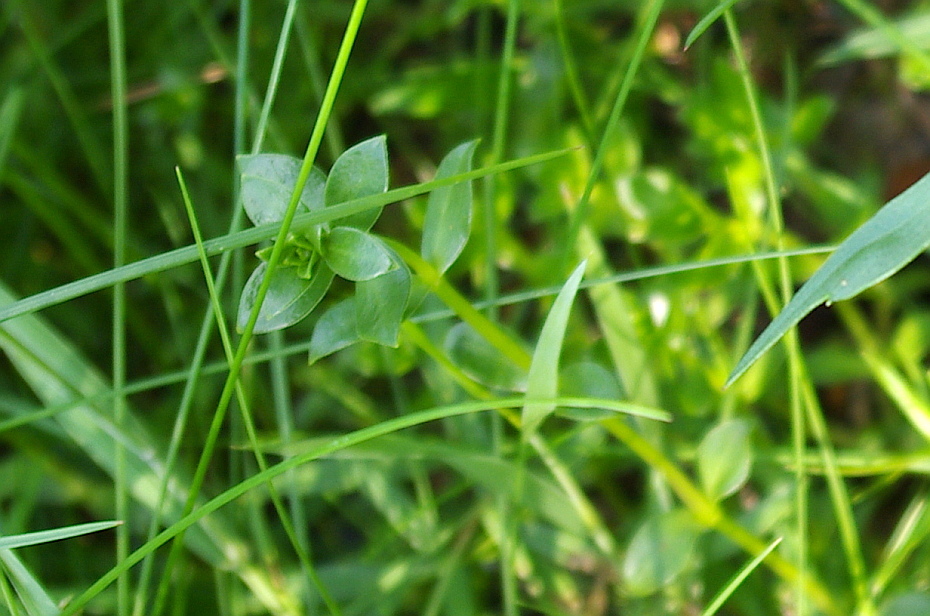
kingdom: Plantae
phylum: Tracheophyta
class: Magnoliopsida
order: Ericales
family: Primulaceae
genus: Lysimachia
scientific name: Lysimachia maritima
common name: Sea milkwort
